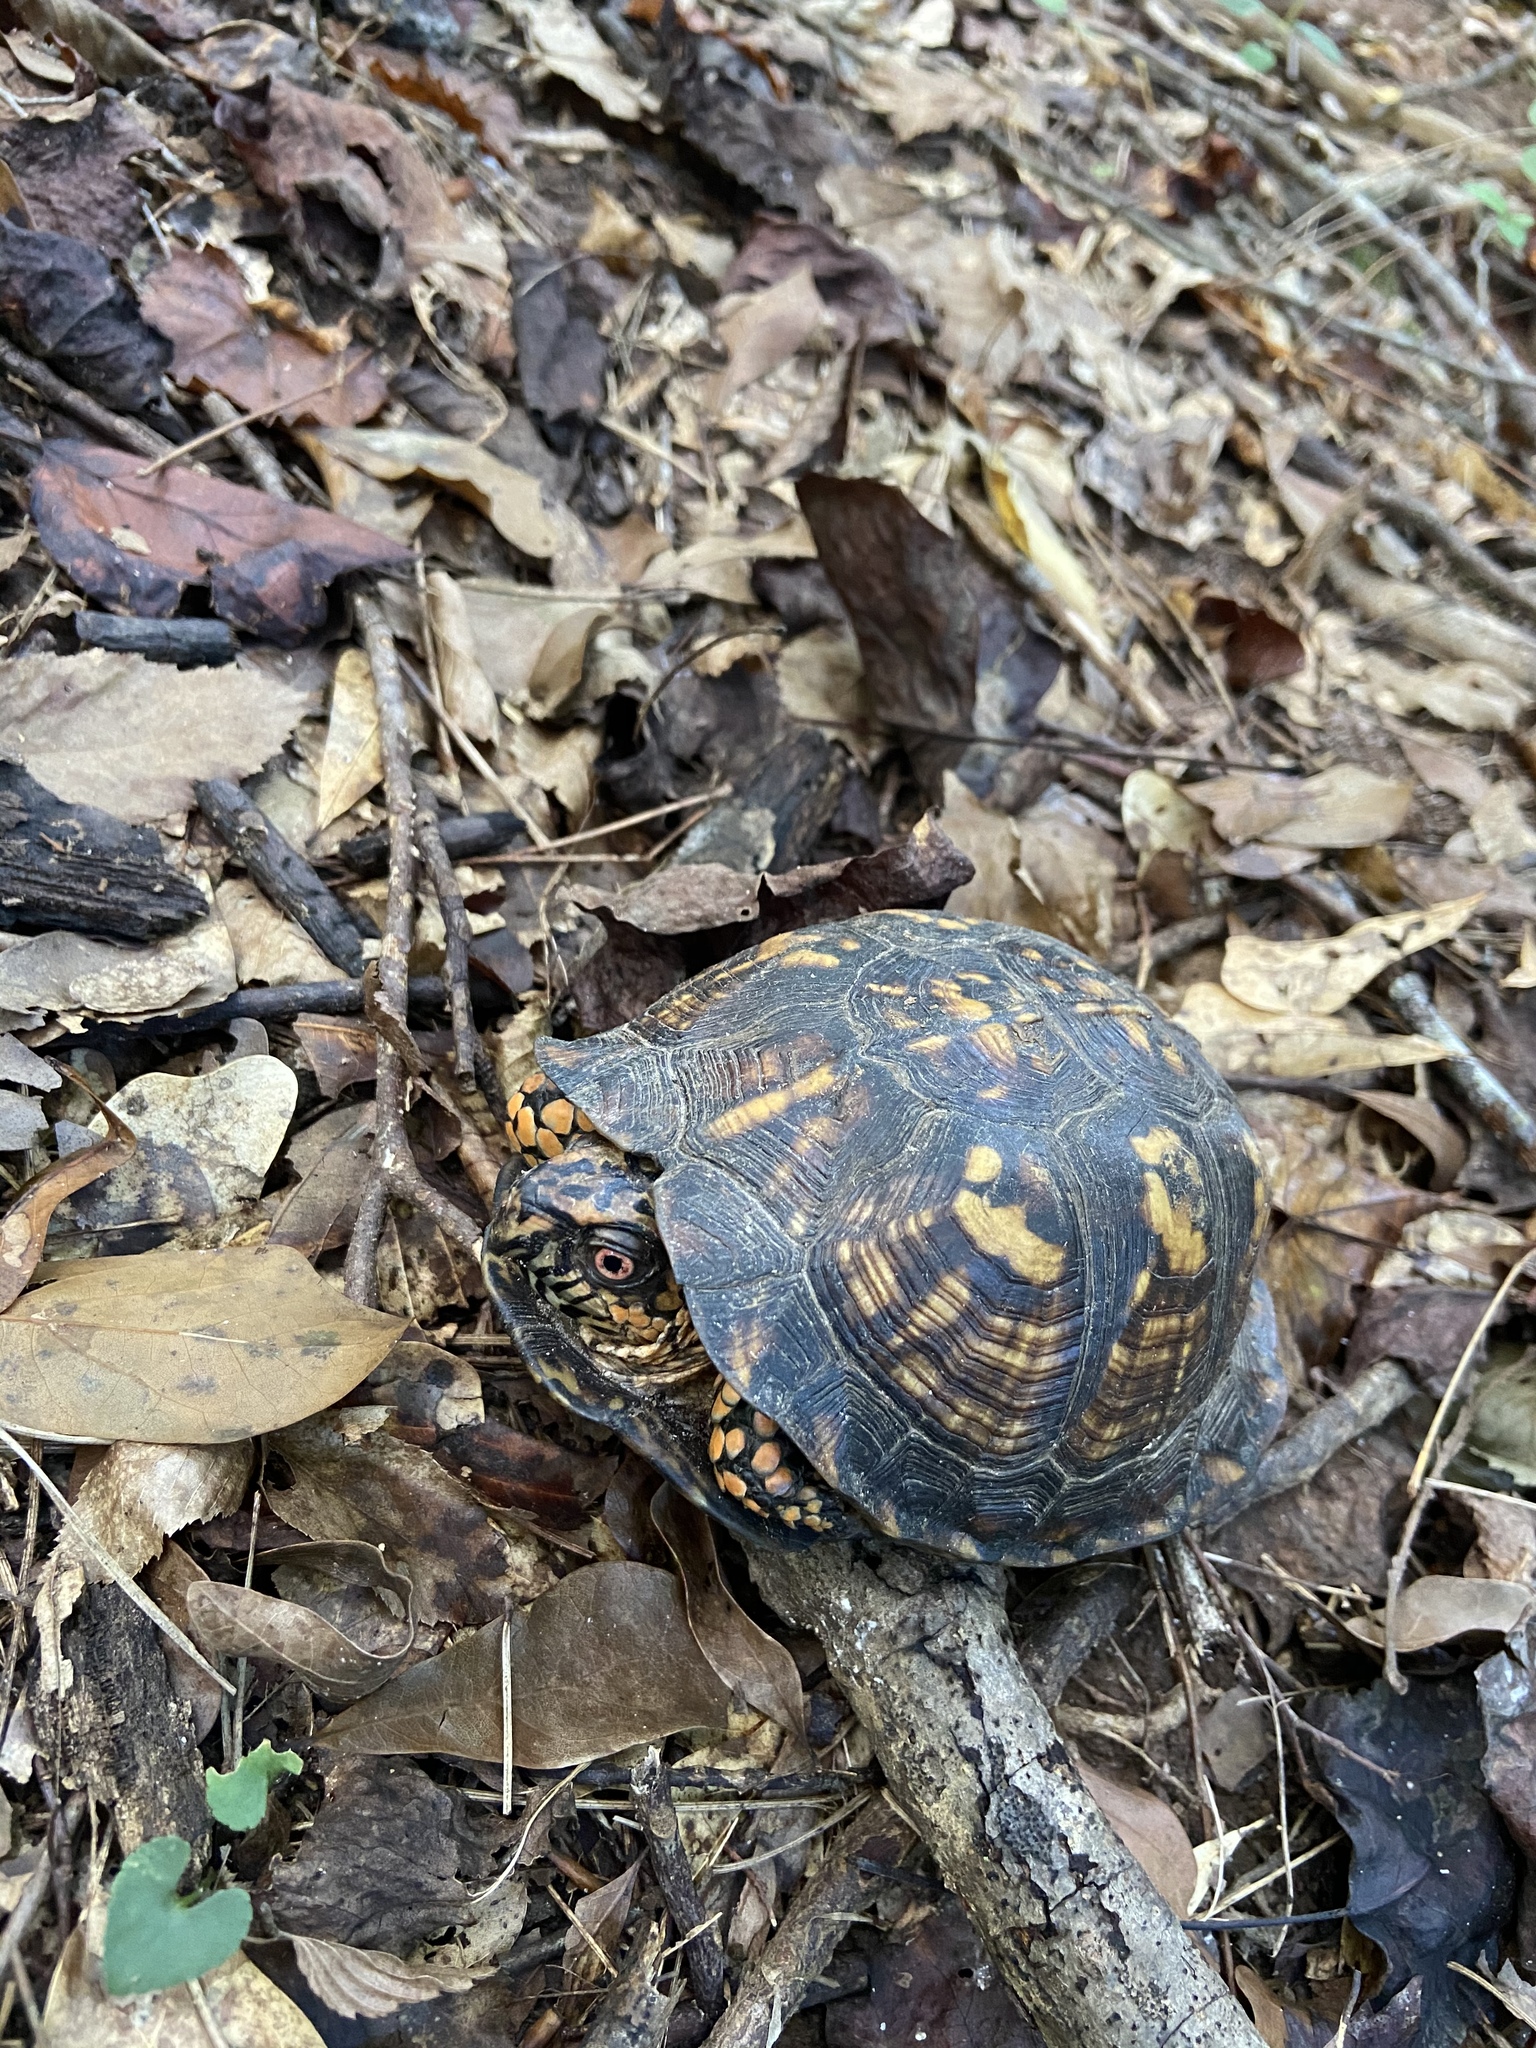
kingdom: Animalia
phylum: Chordata
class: Testudines
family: Emydidae
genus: Terrapene
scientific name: Terrapene carolina
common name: Common box turtle
